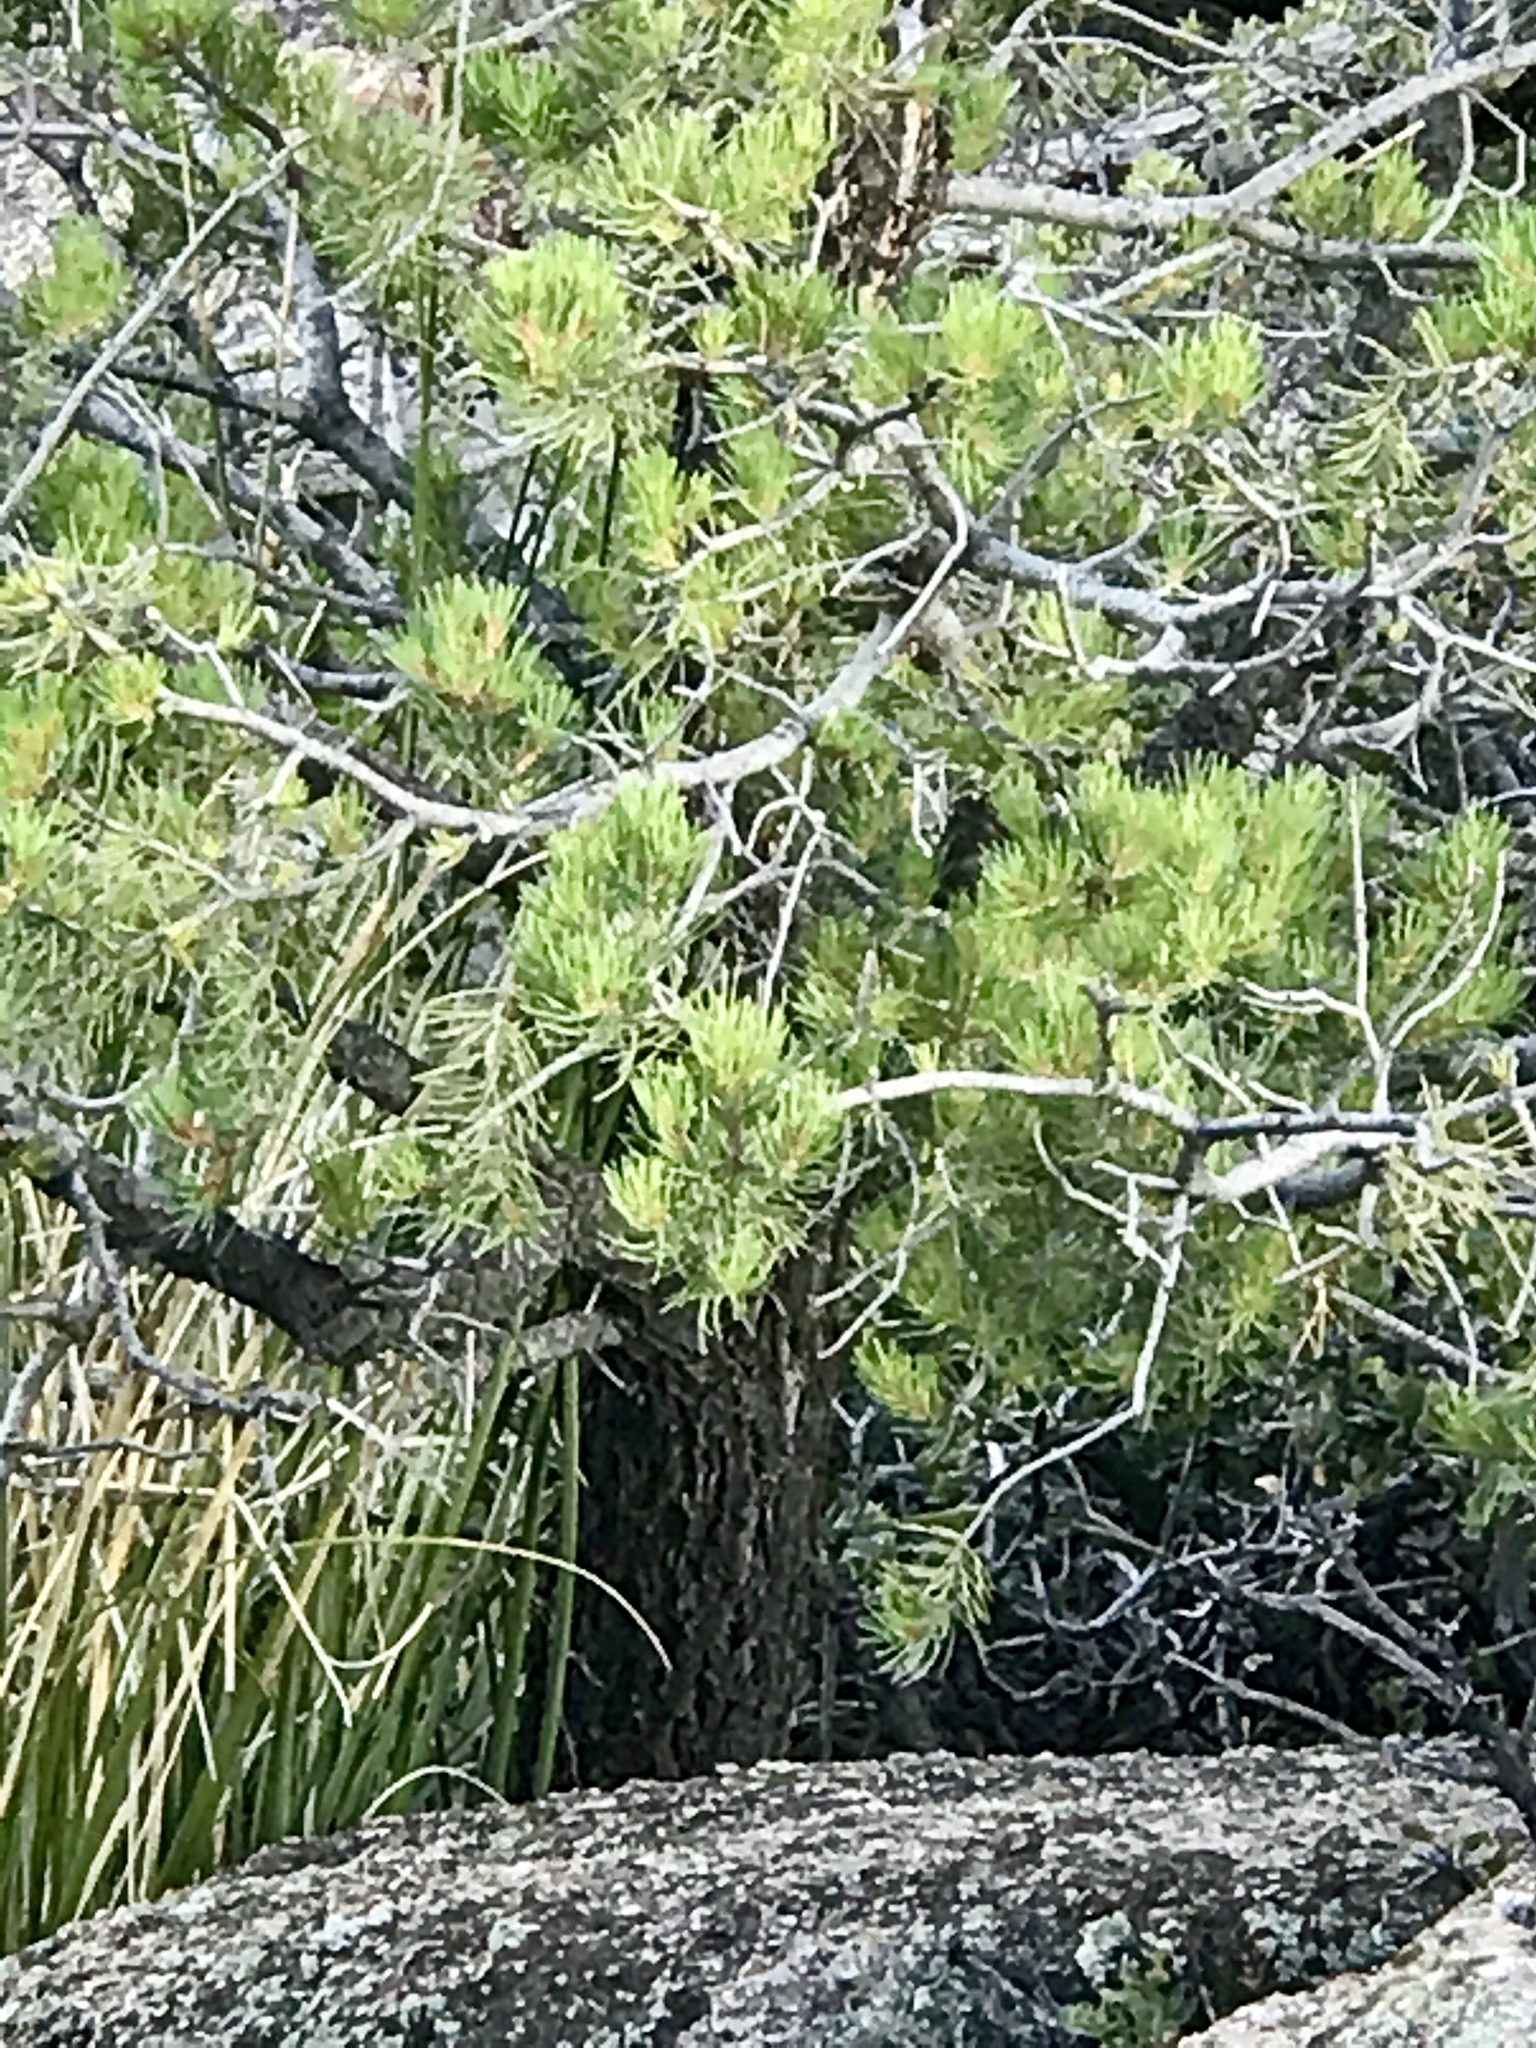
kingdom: Plantae
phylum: Tracheophyta
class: Pinopsida
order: Pinales
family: Pinaceae
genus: Pinus
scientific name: Pinus monophylla
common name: One-leaved nut pine
